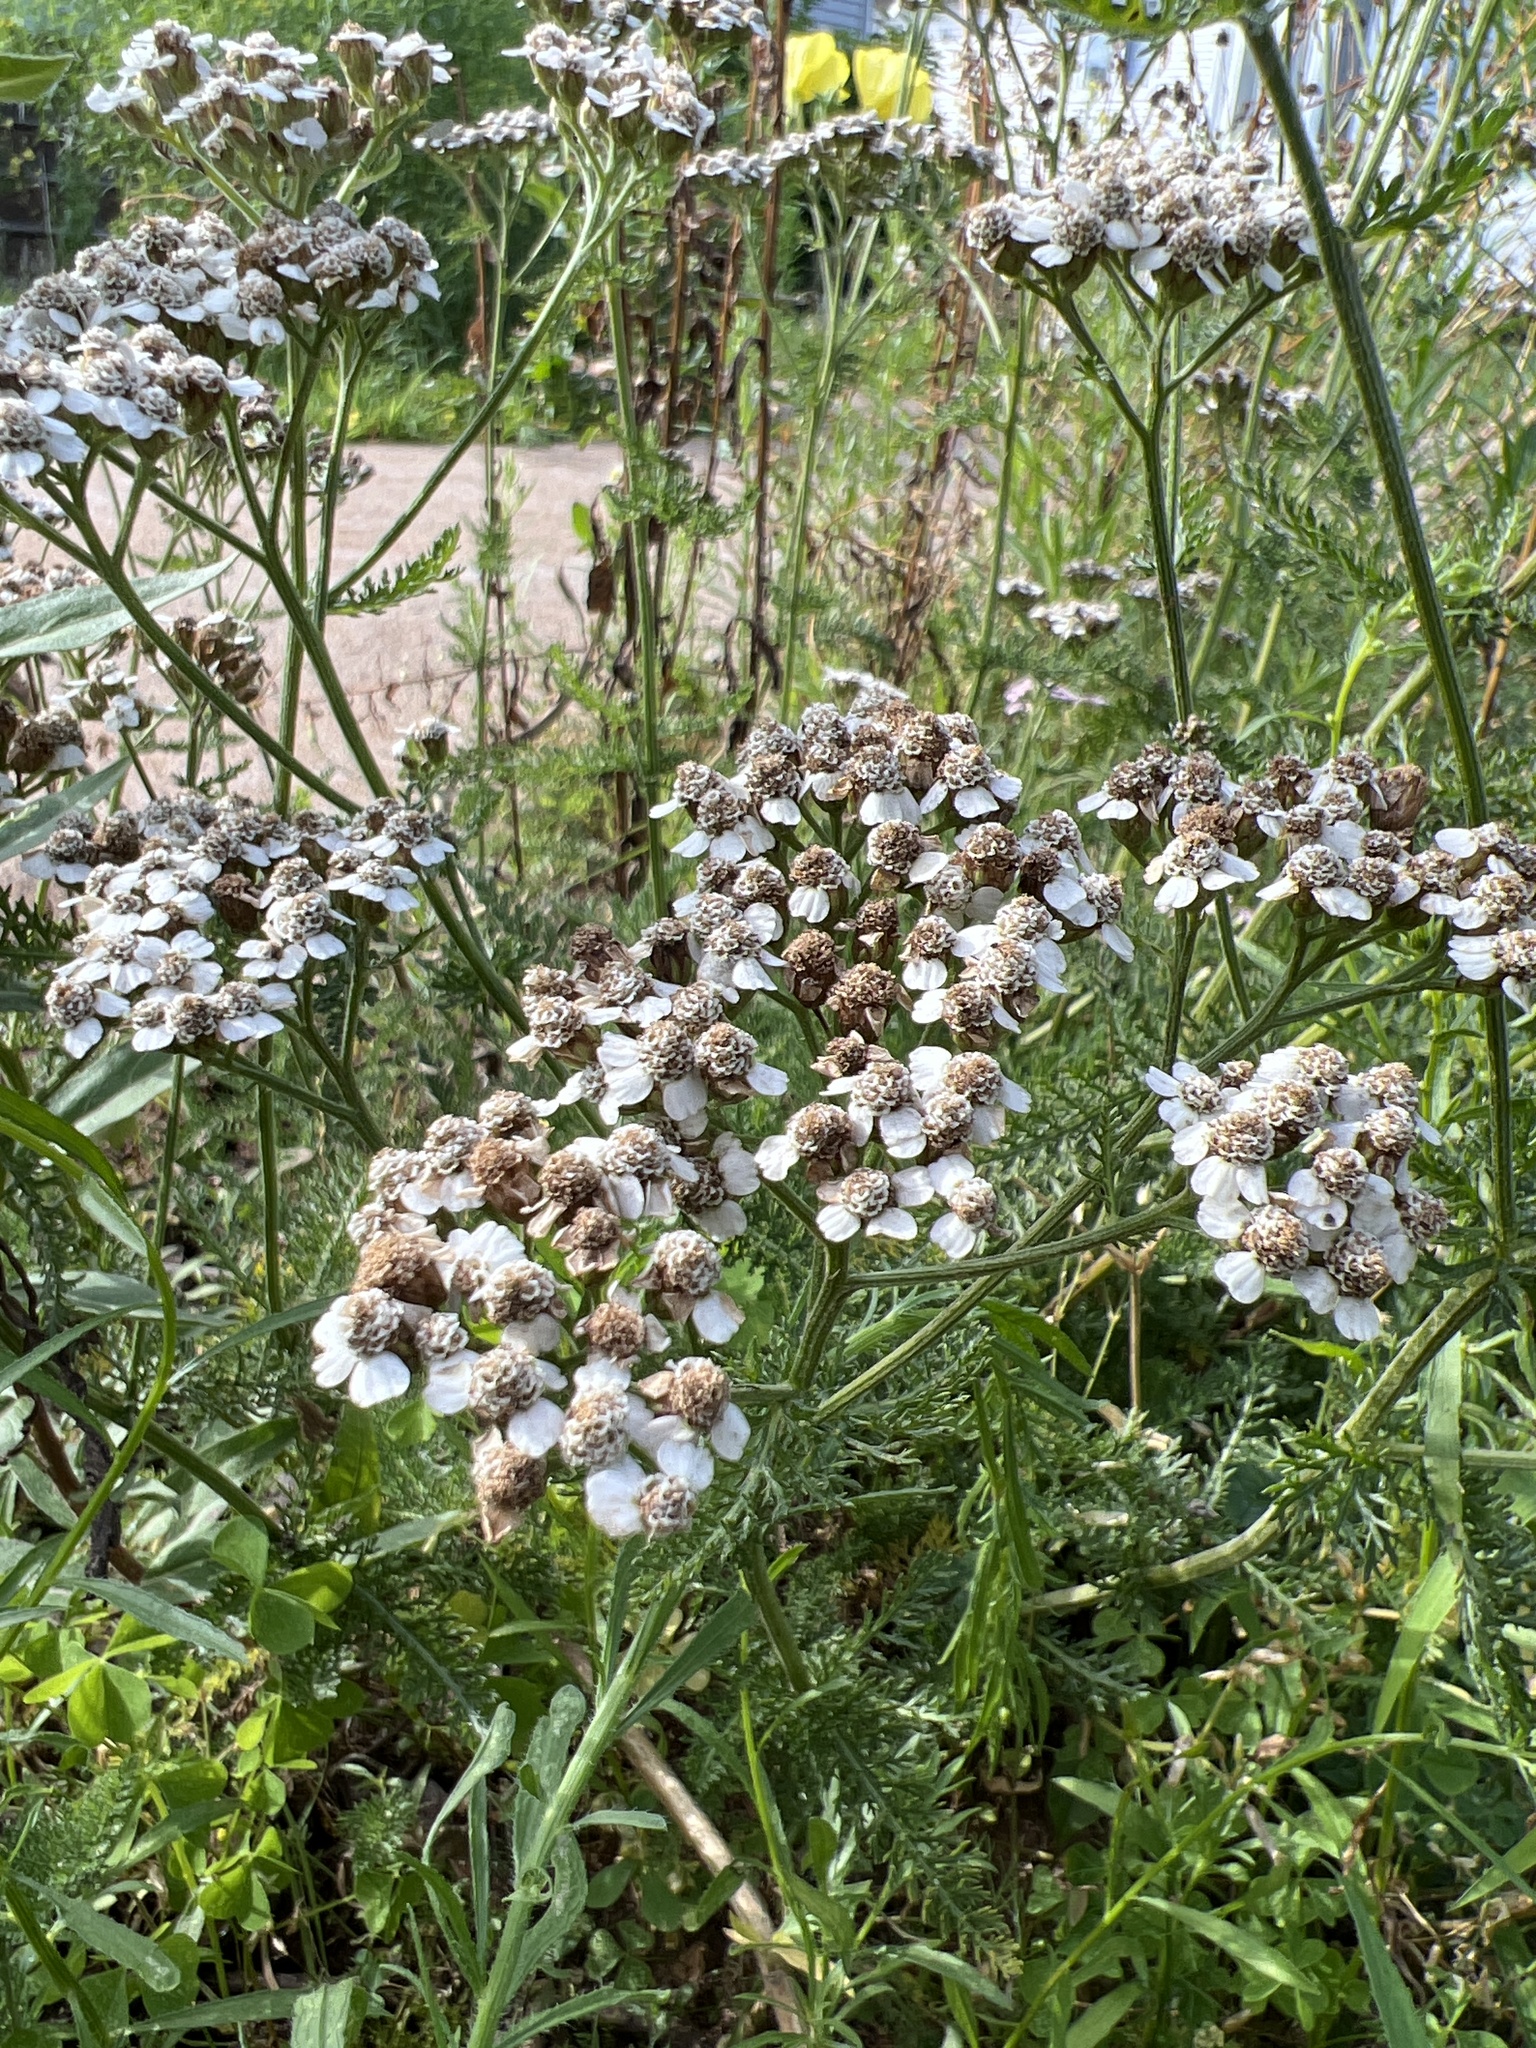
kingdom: Plantae
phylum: Tracheophyta
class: Magnoliopsida
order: Asterales
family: Asteraceae
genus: Achillea
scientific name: Achillea millefolium
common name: Yarrow
